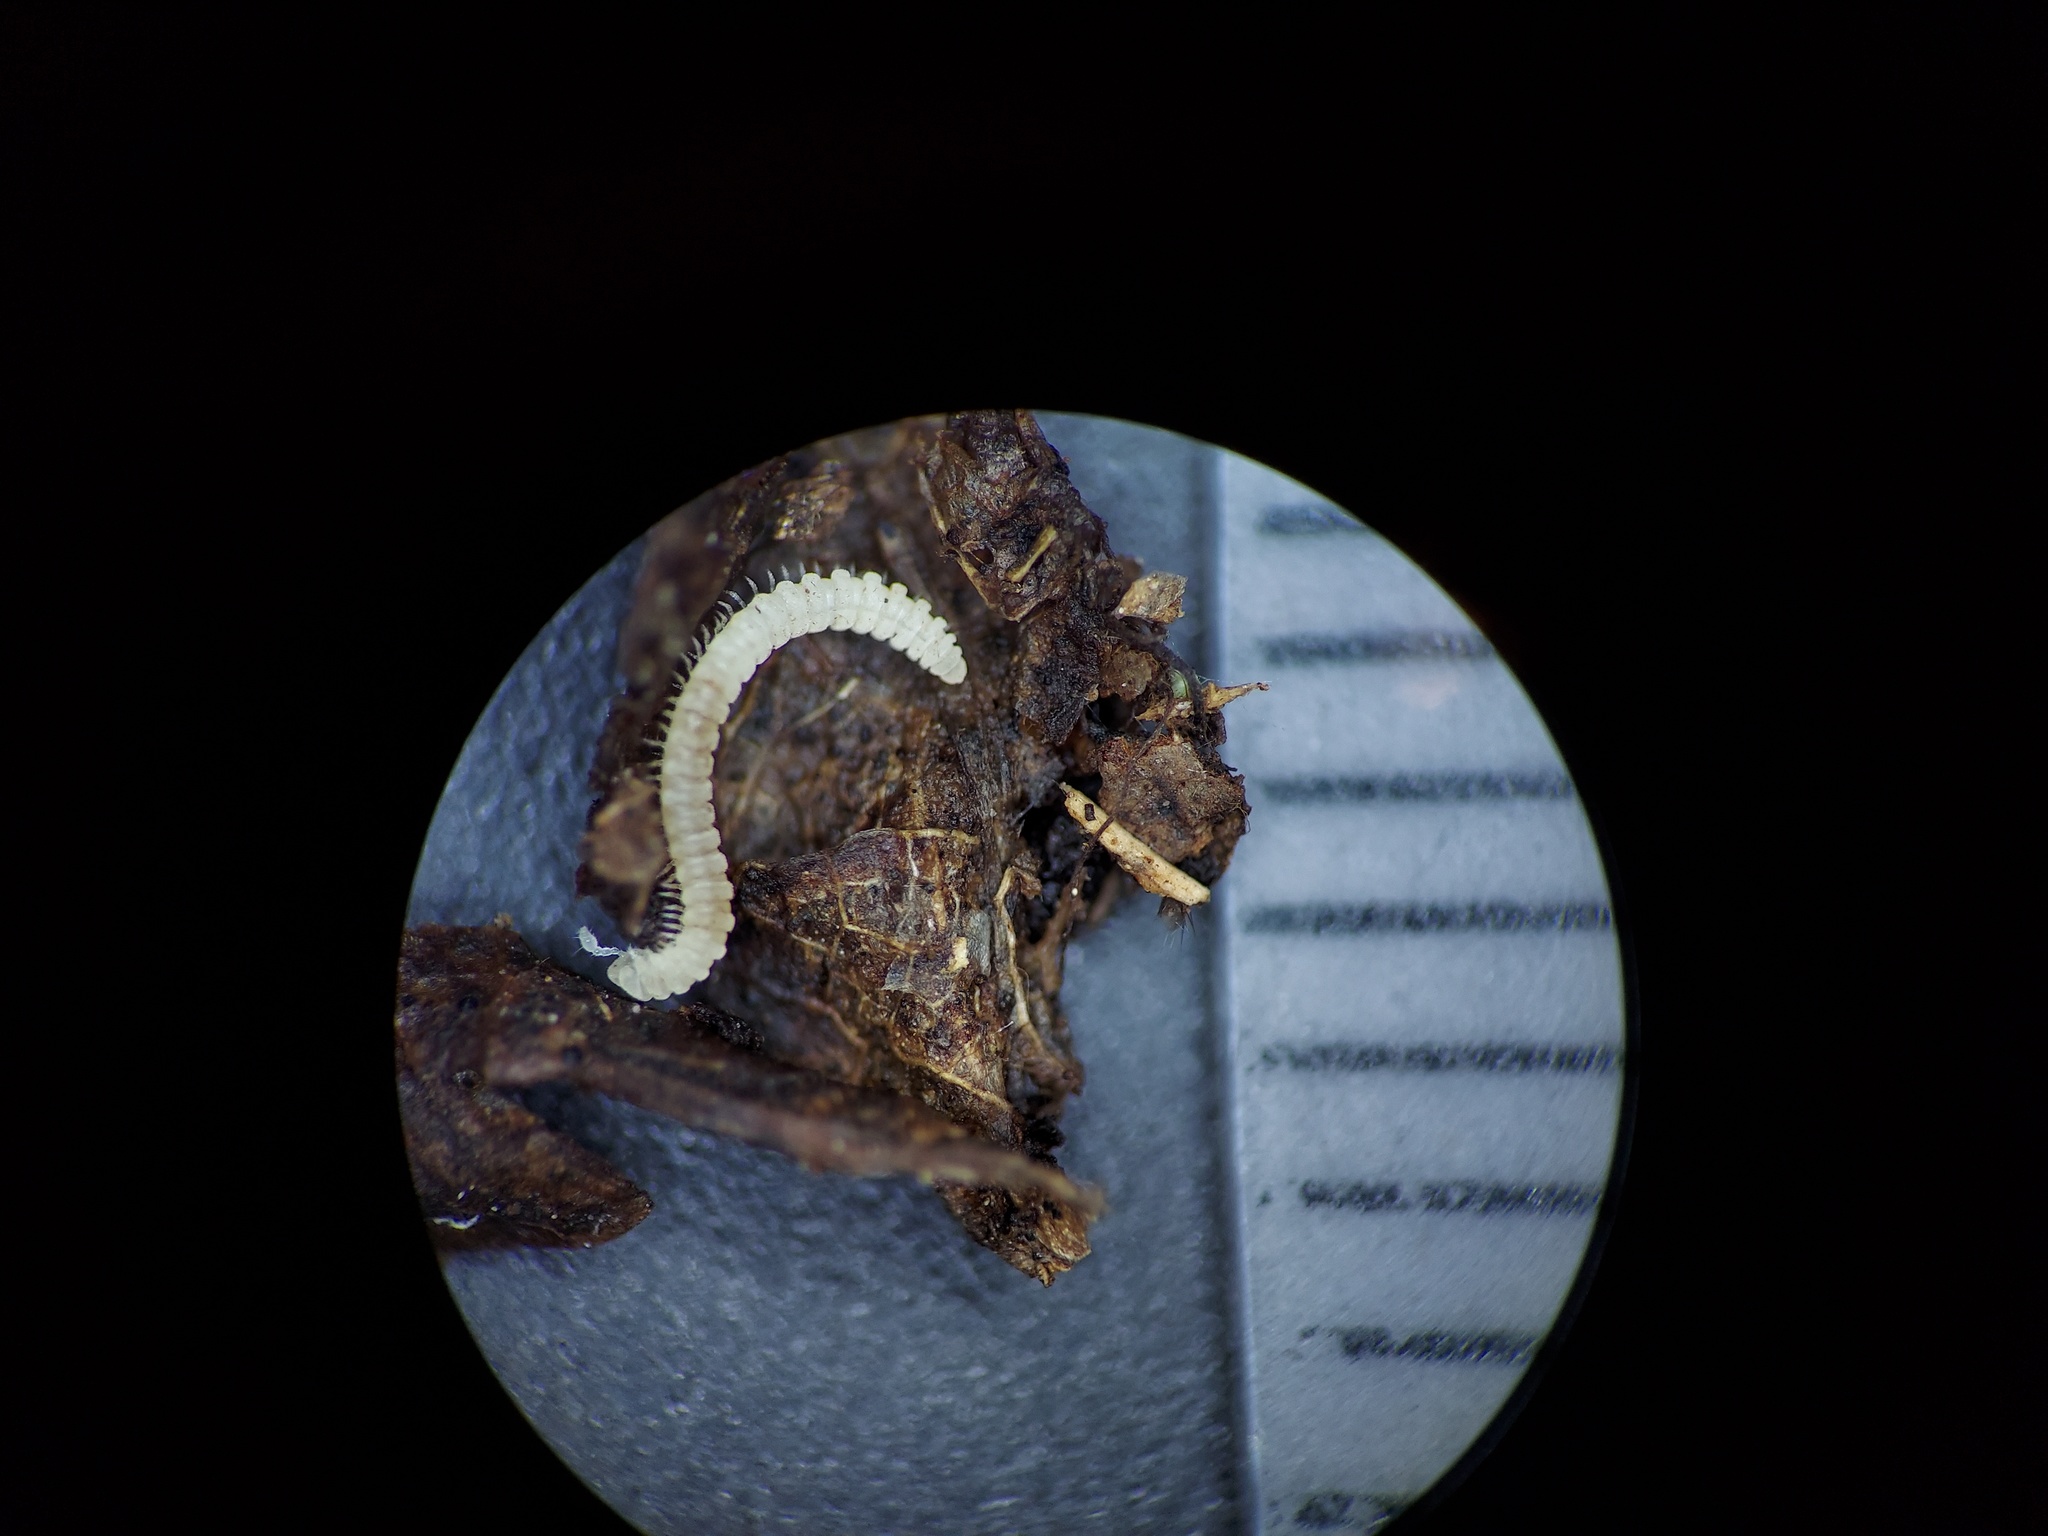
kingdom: Animalia
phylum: Arthropoda
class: Diplopoda
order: Chordeumatida
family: Buotidae
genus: Buotus
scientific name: Buotus carolinus
